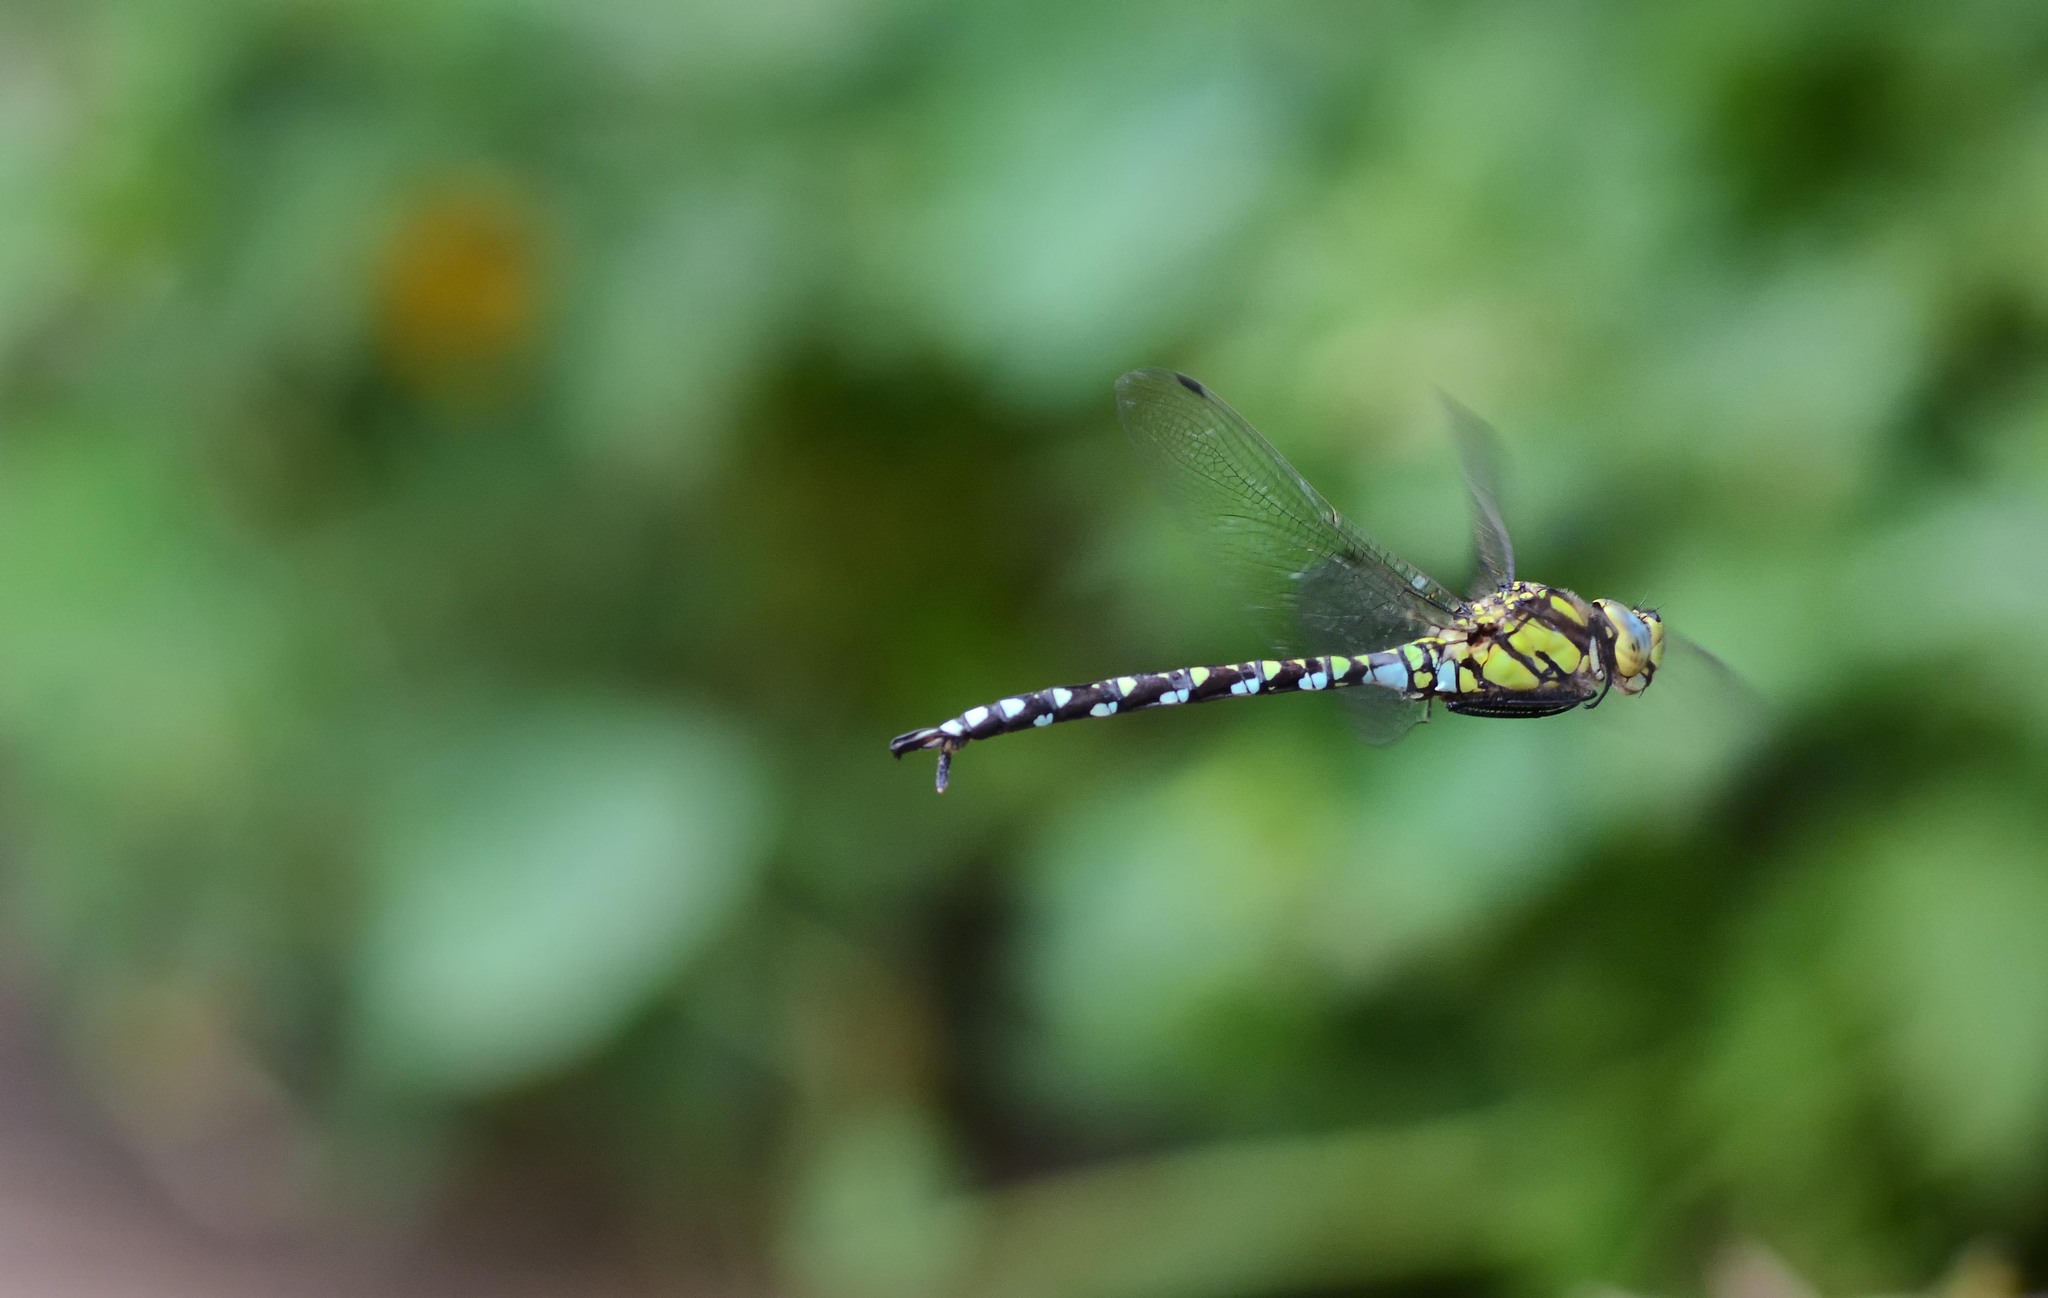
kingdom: Animalia
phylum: Arthropoda
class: Insecta
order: Odonata
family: Aeshnidae
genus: Aeshna
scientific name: Aeshna cyanea
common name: Southern hawker
